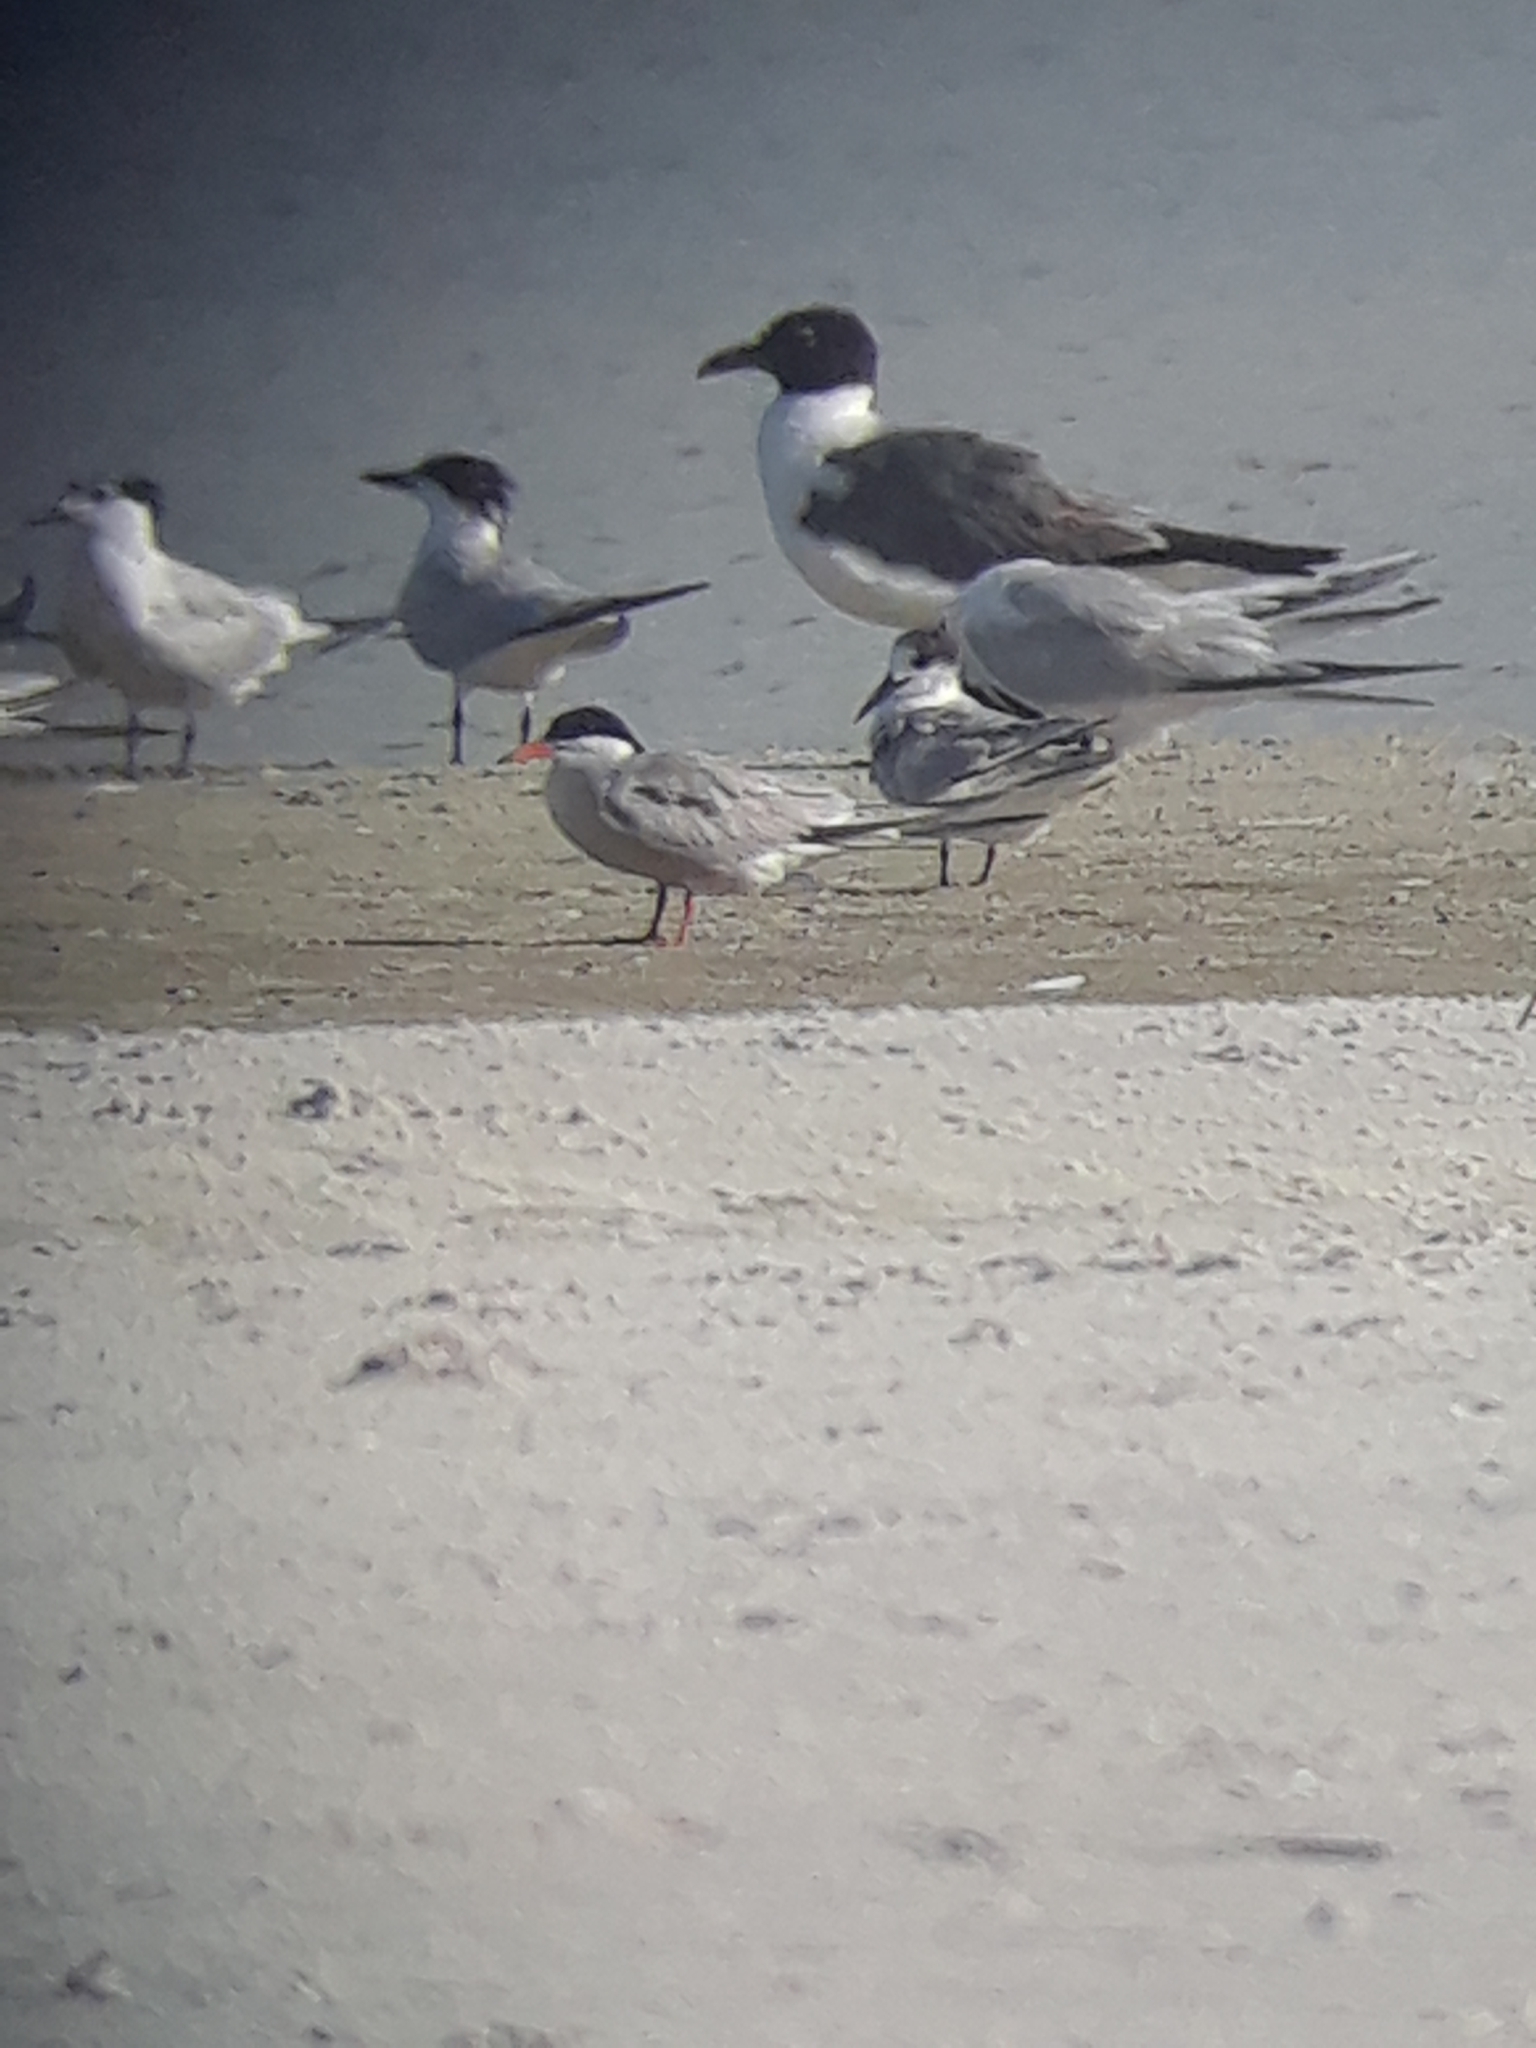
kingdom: Animalia
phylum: Chordata
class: Aves
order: Charadriiformes
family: Laridae
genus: Sterna
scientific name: Sterna hirundo
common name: Common tern
